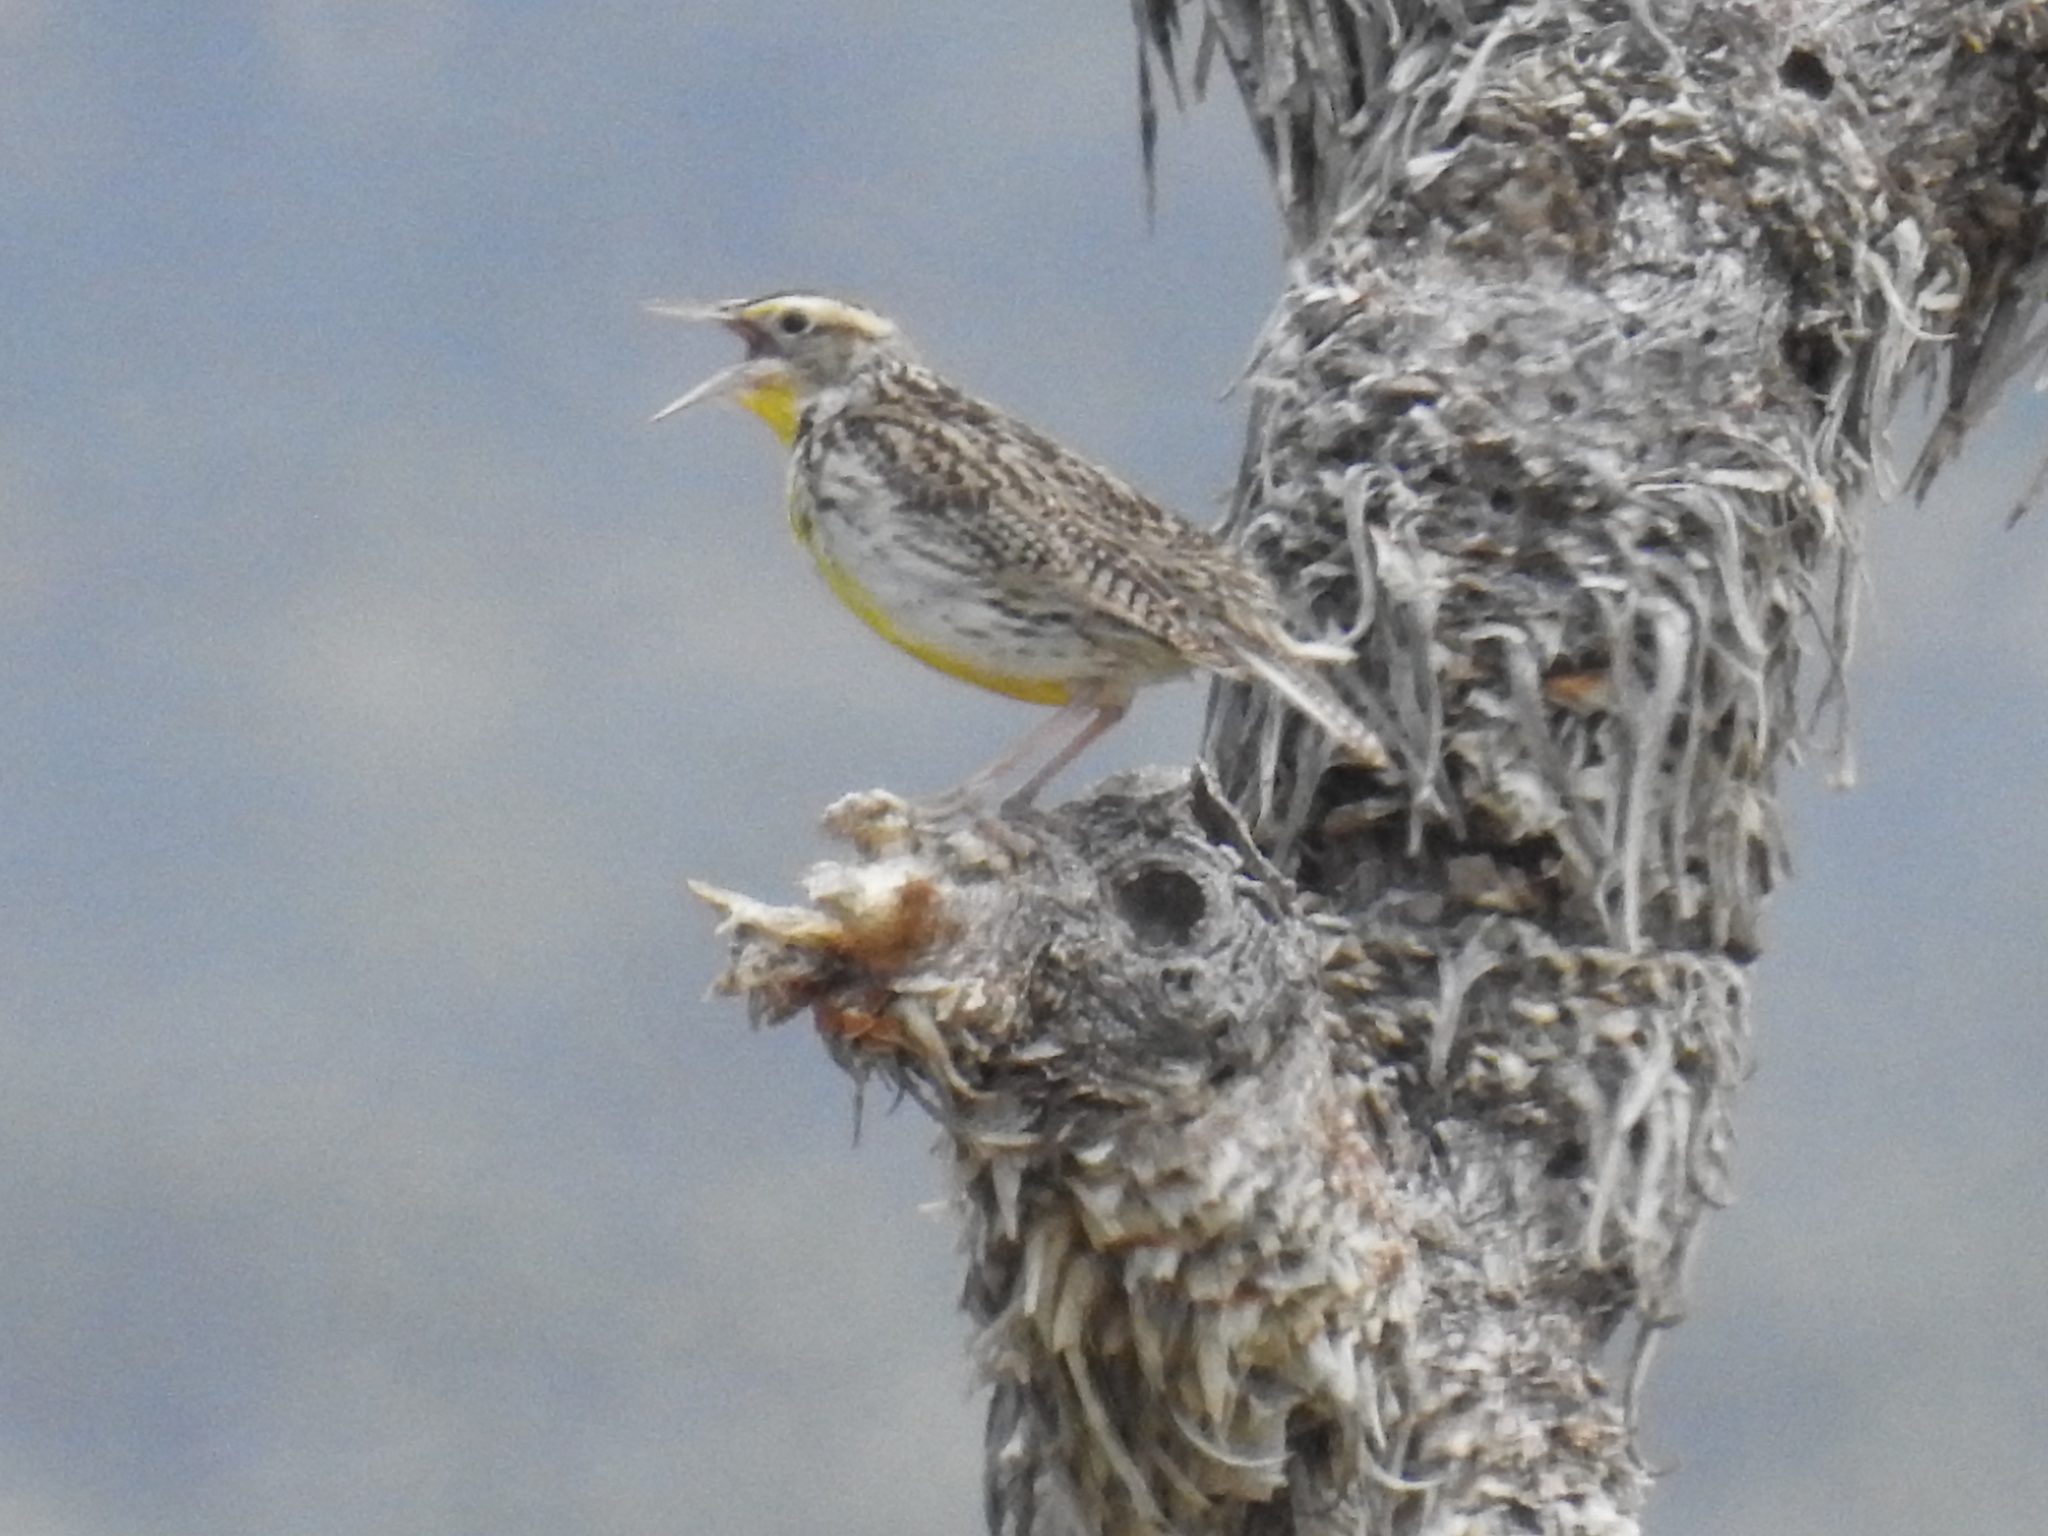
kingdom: Animalia
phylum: Chordata
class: Aves
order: Passeriformes
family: Icteridae
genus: Sturnella
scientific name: Sturnella neglecta
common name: Western meadowlark
